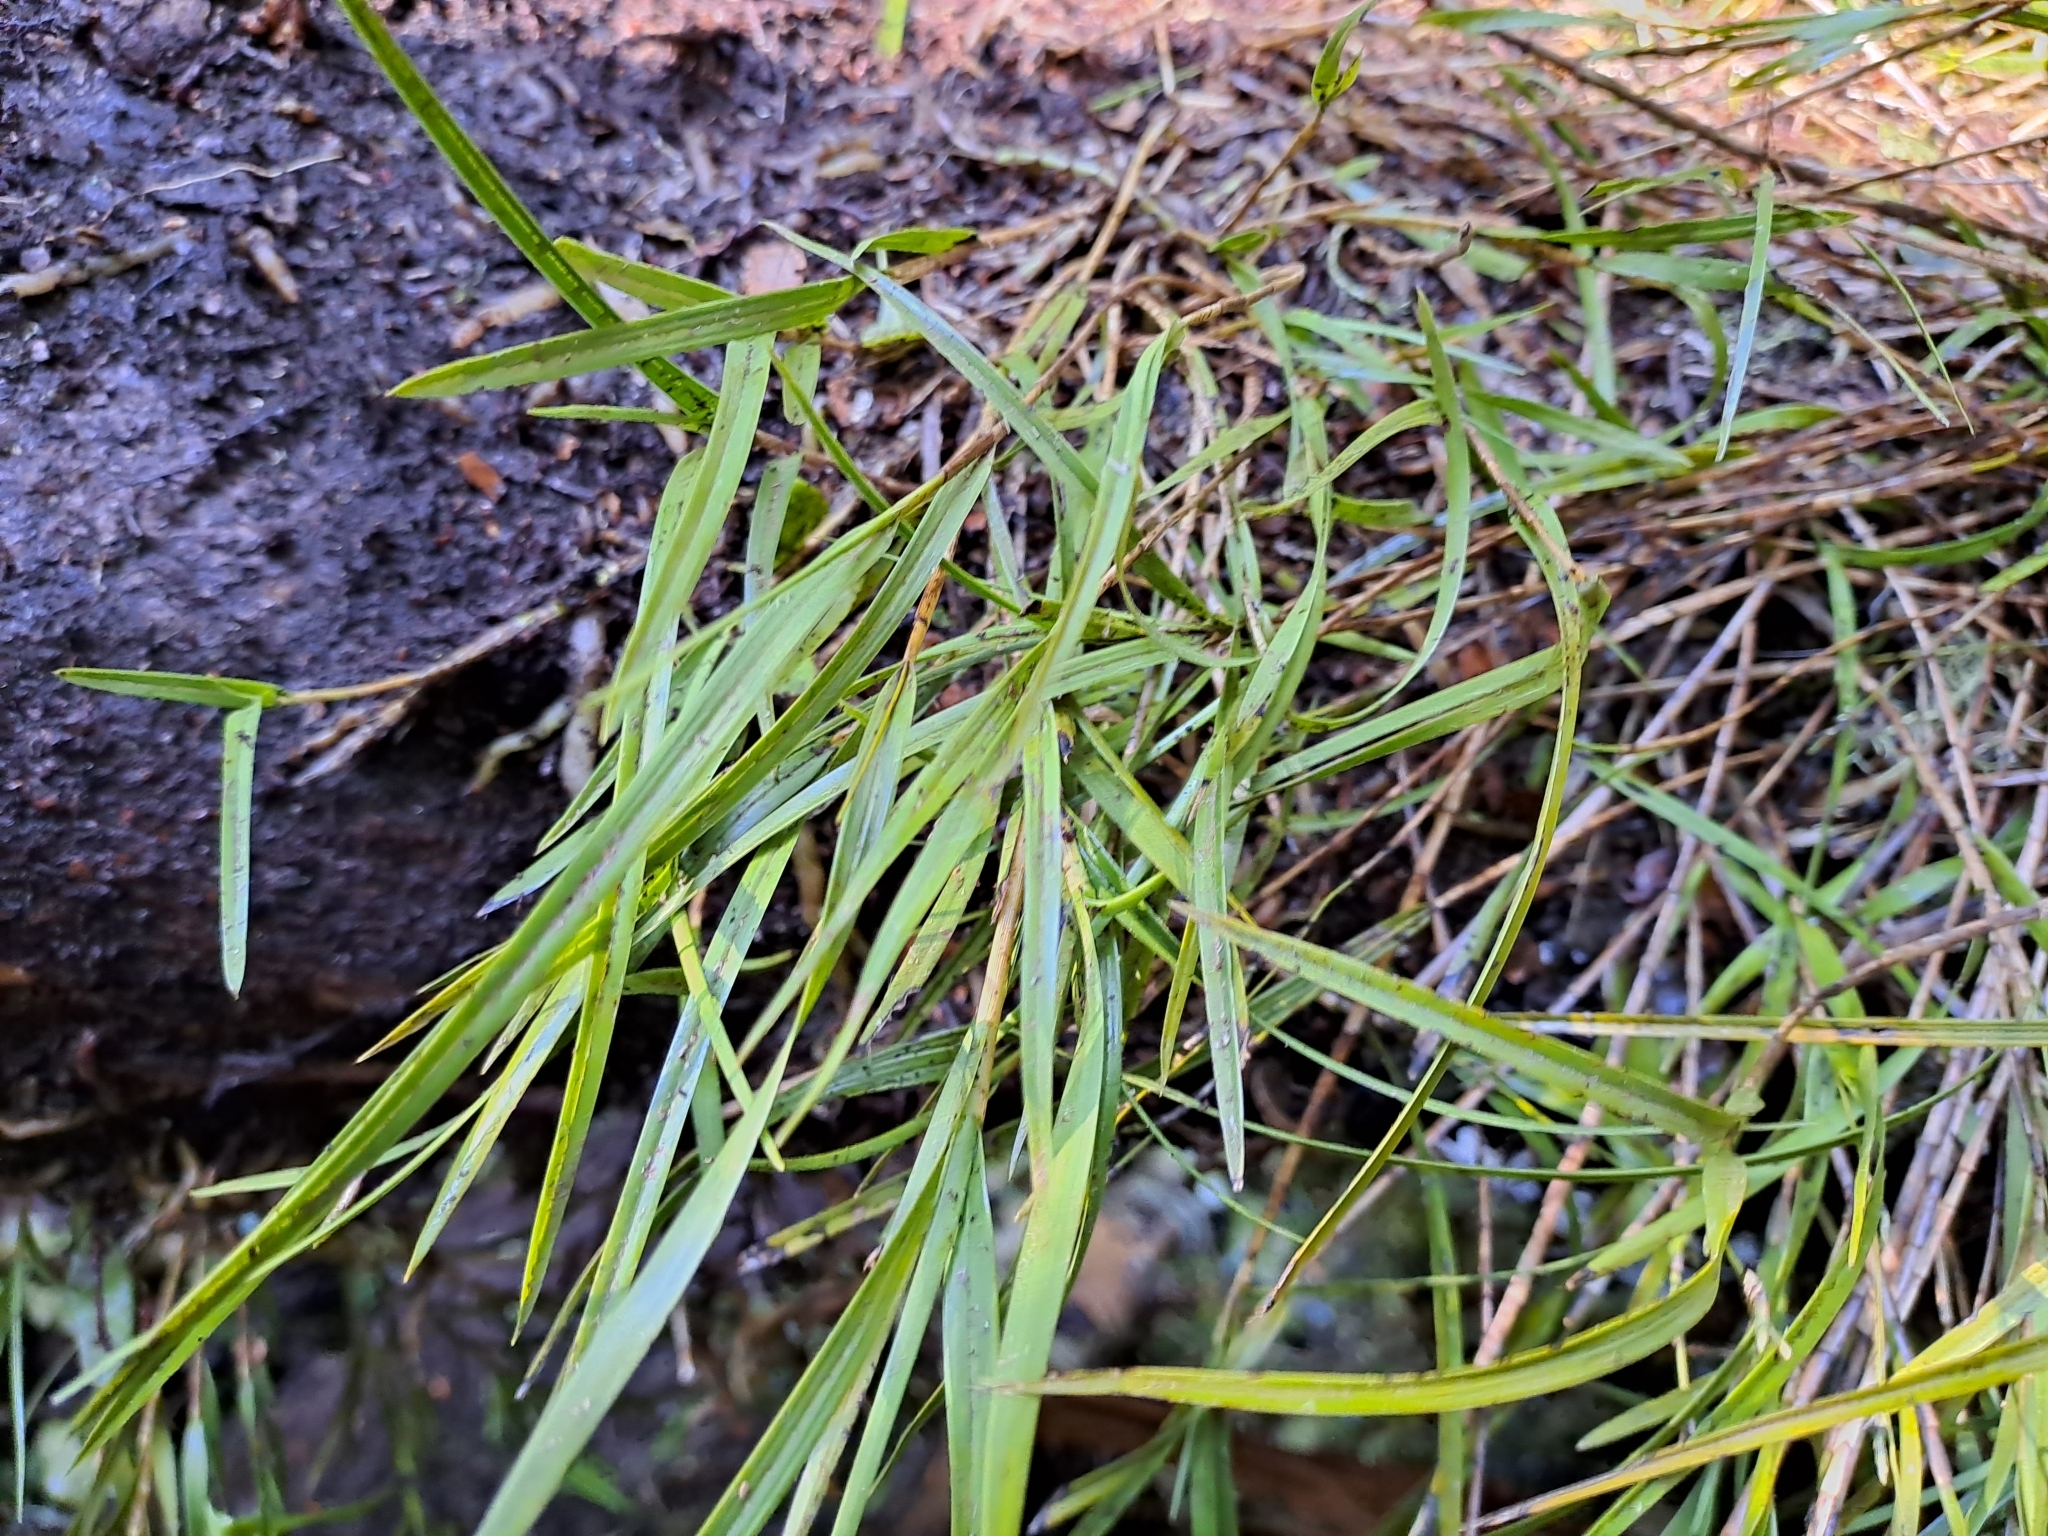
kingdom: Plantae
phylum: Tracheophyta
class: Liliopsida
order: Asparagales
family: Orchidaceae
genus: Earina
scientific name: Earina mucronata
